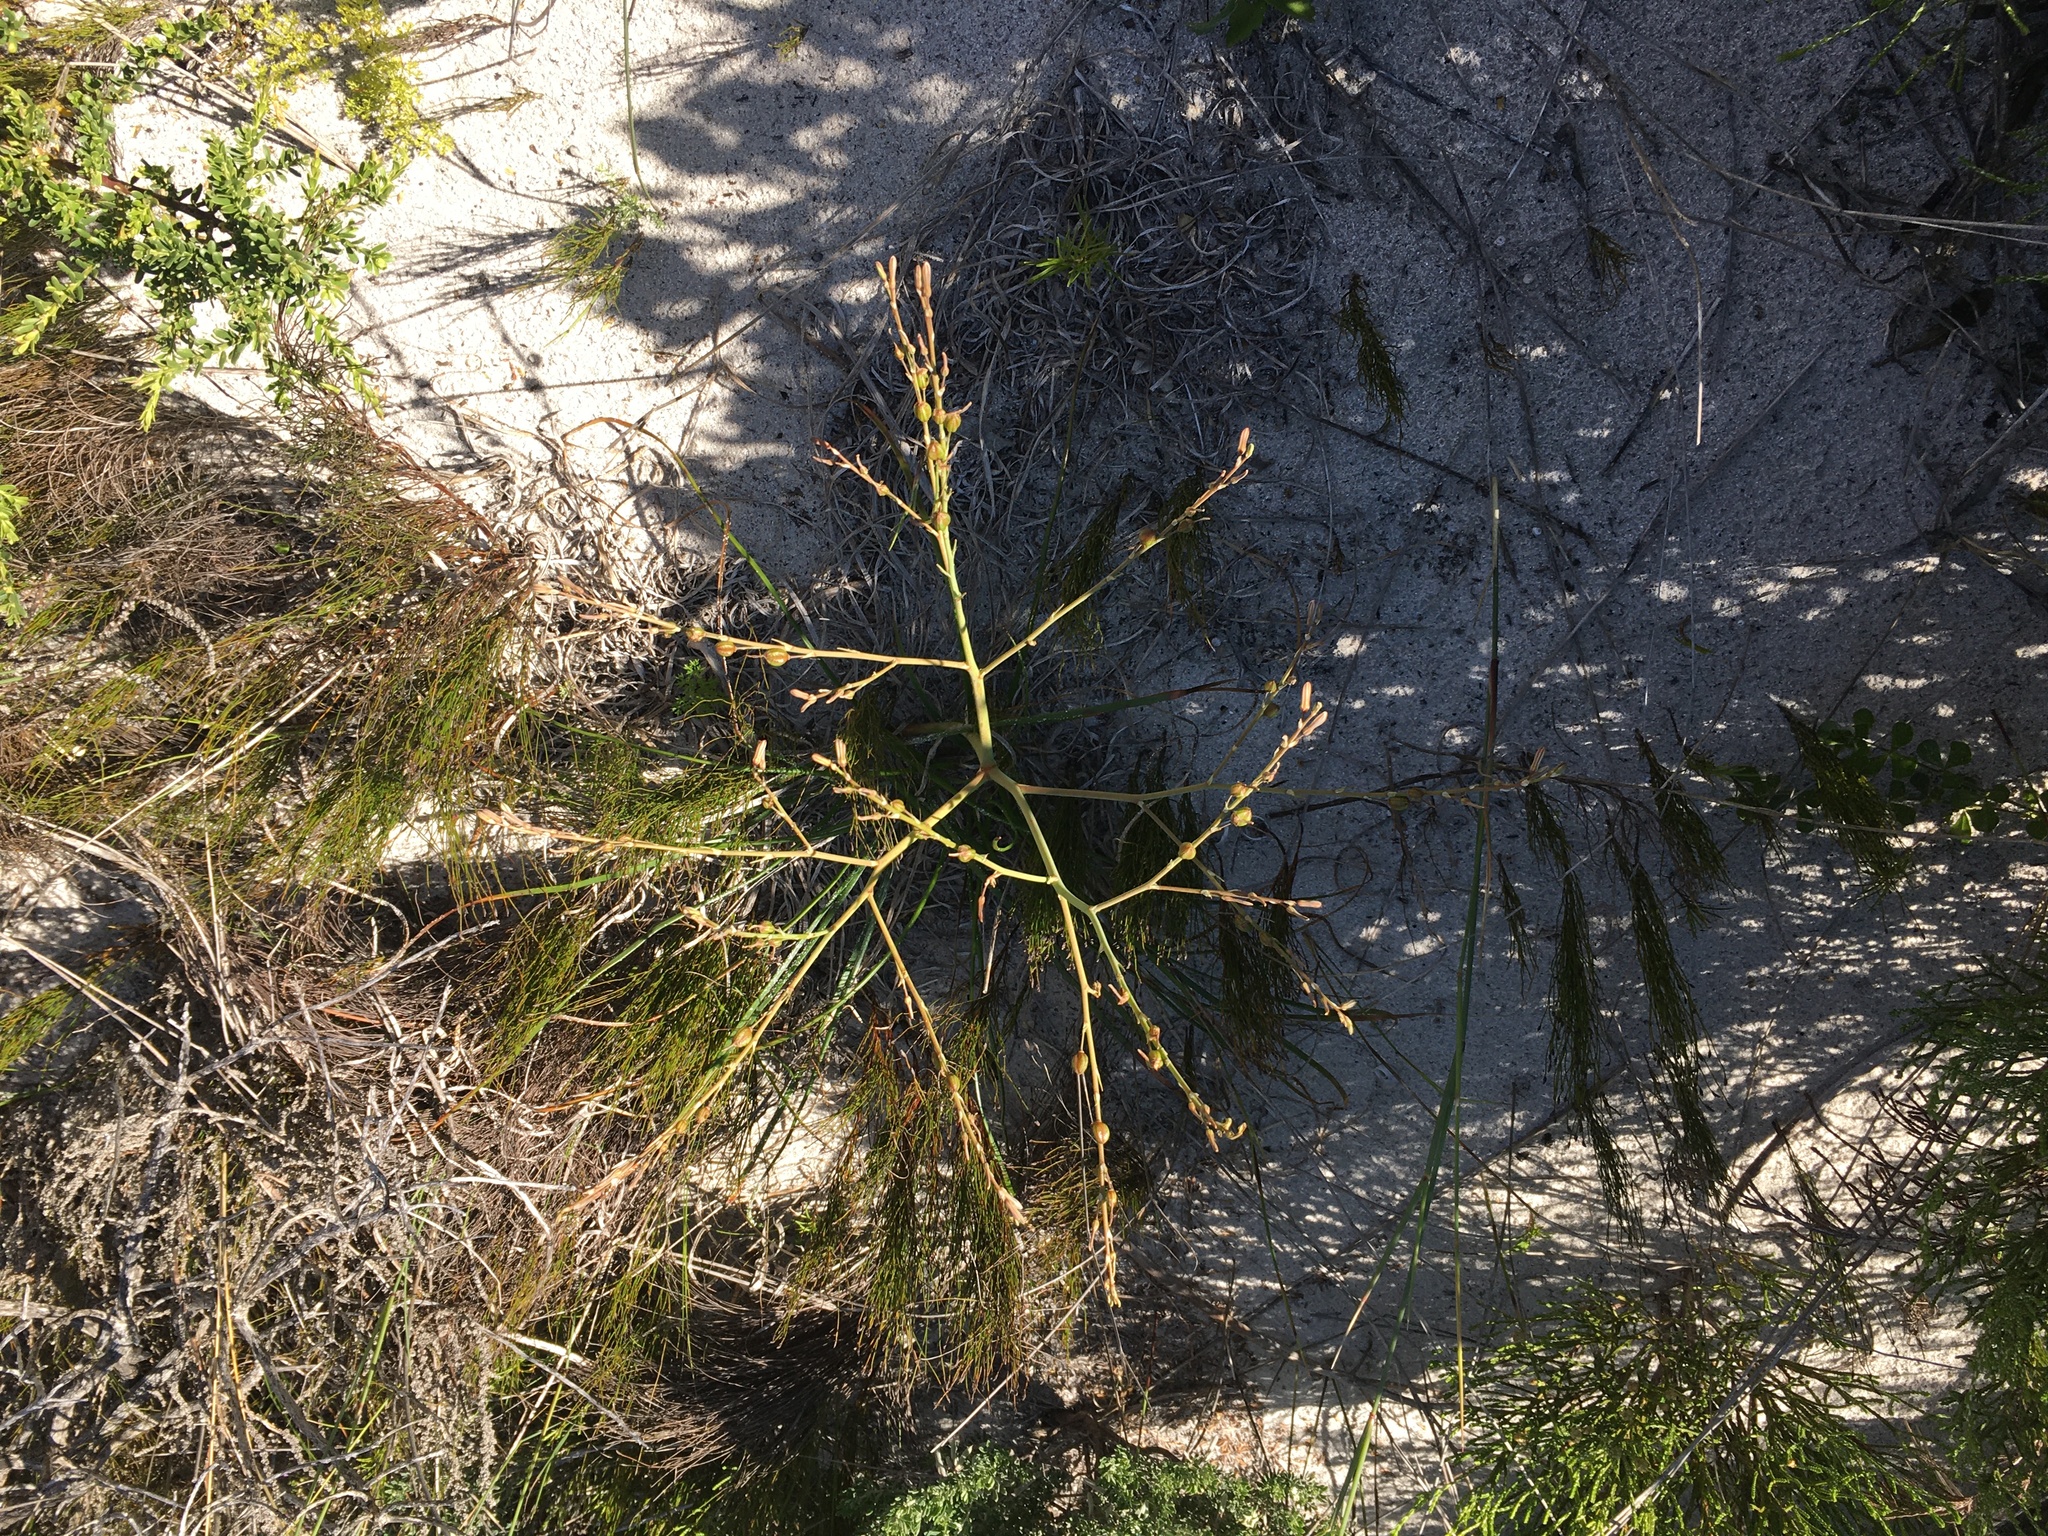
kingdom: Plantae
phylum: Tracheophyta
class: Liliopsida
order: Asparagales
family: Asphodelaceae
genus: Trachyandra
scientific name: Trachyandra divaricata
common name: Dune onionweed
